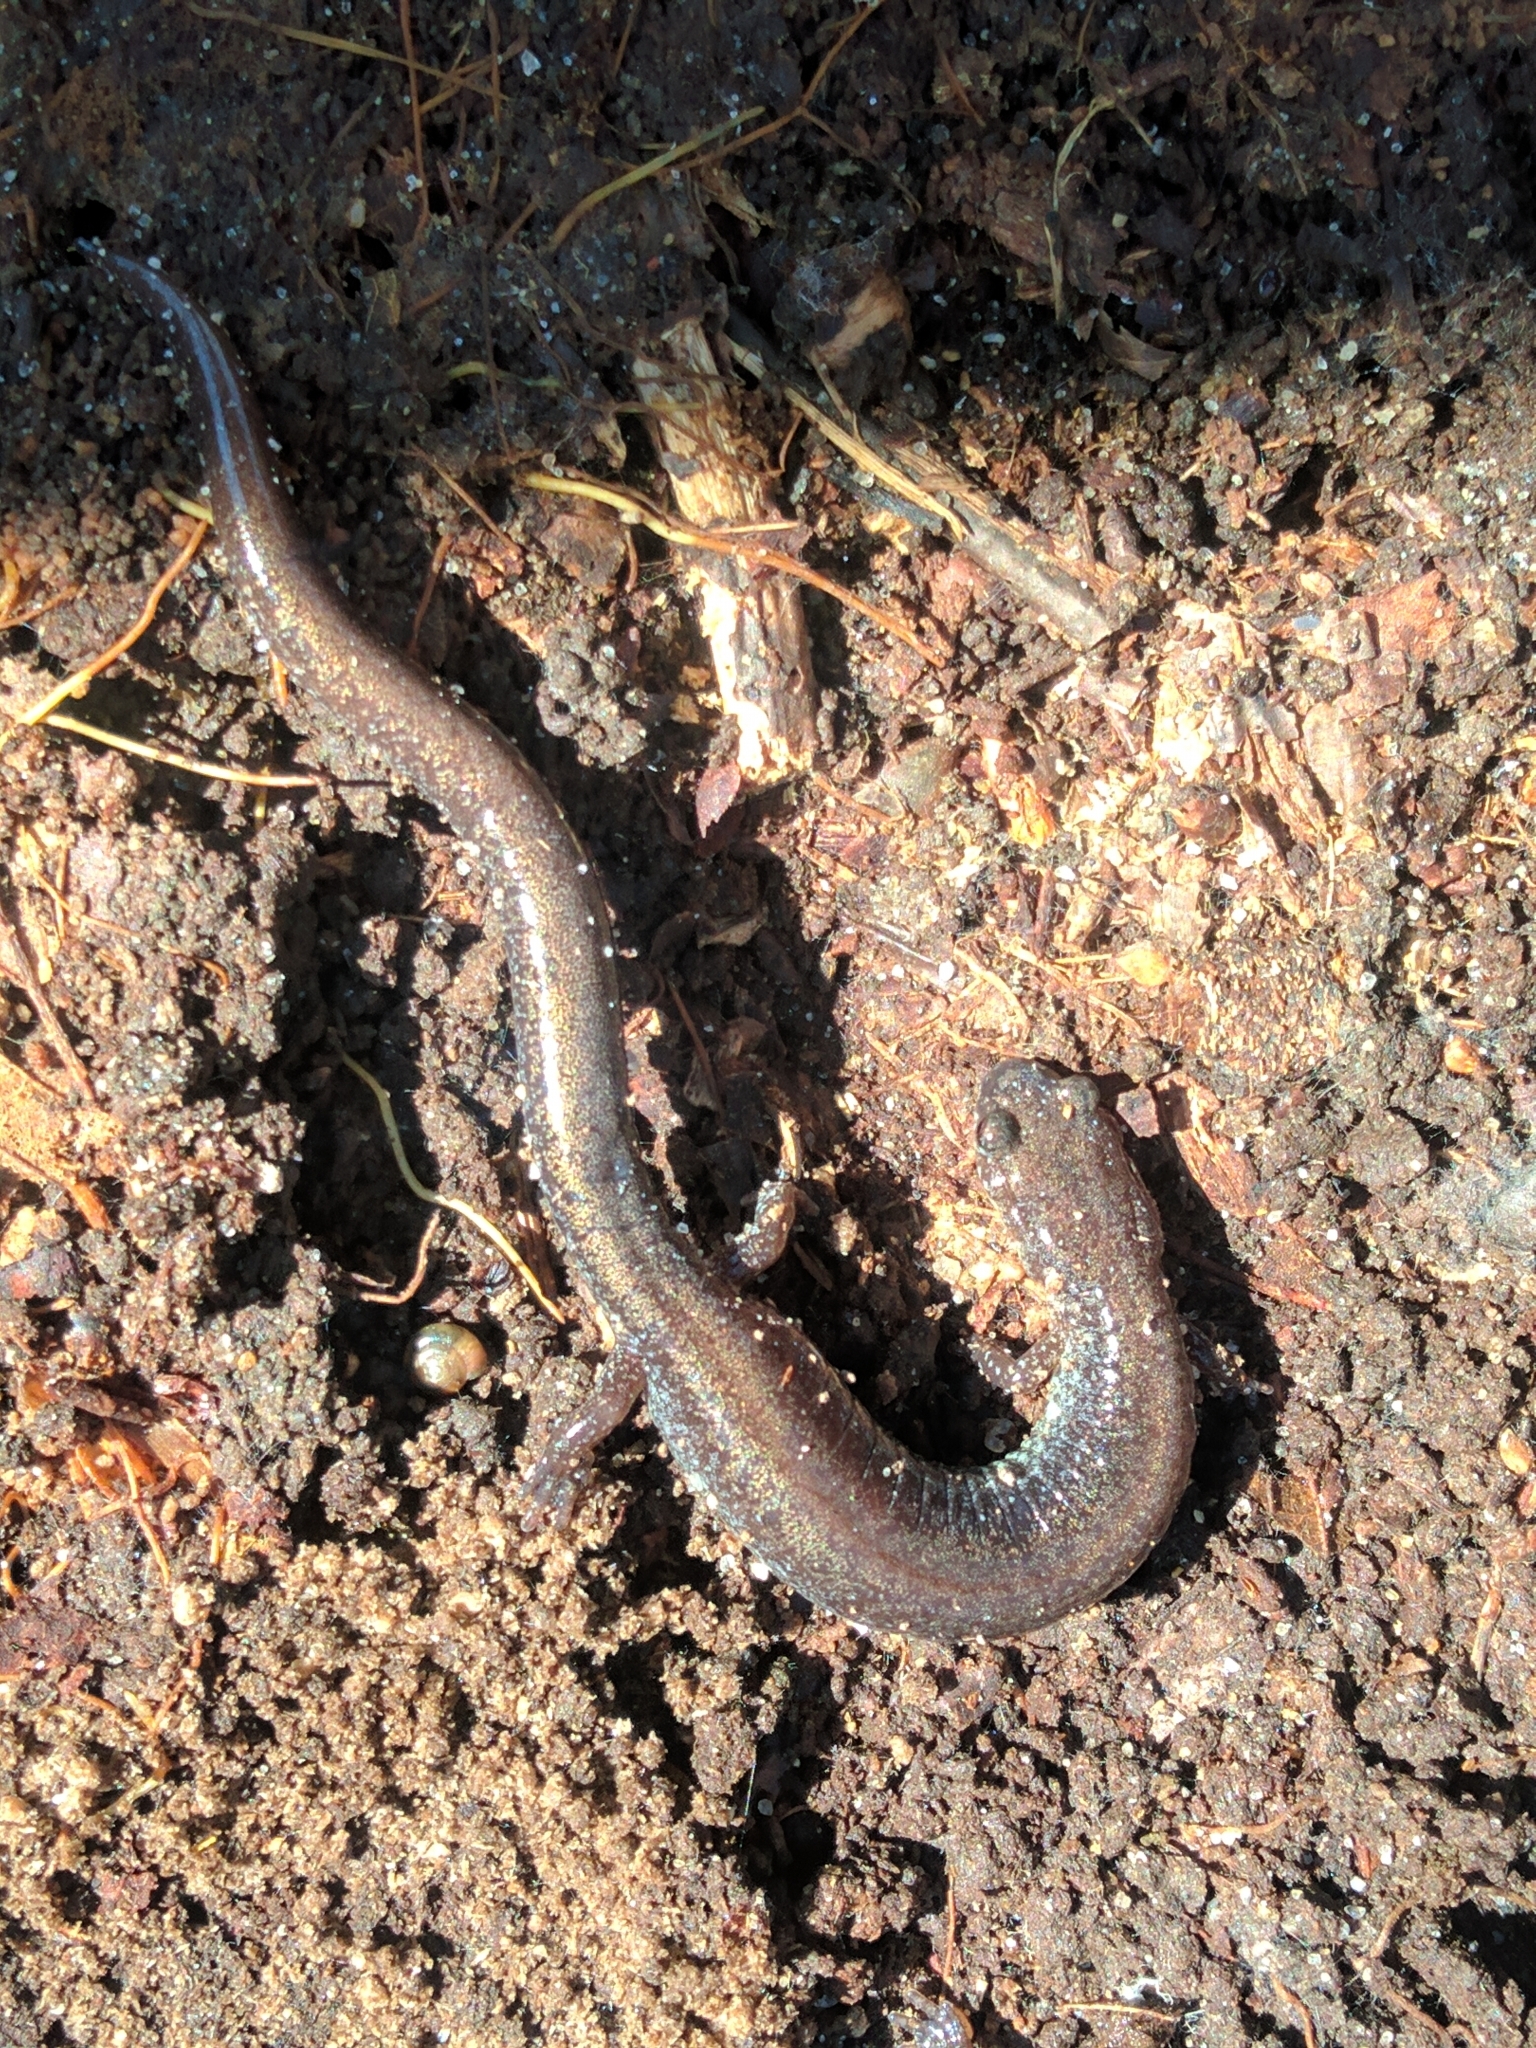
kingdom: Animalia
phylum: Chordata
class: Amphibia
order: Caudata
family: Plethodontidae
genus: Plethodon
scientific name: Plethodon cinereus
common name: Redback salamander
